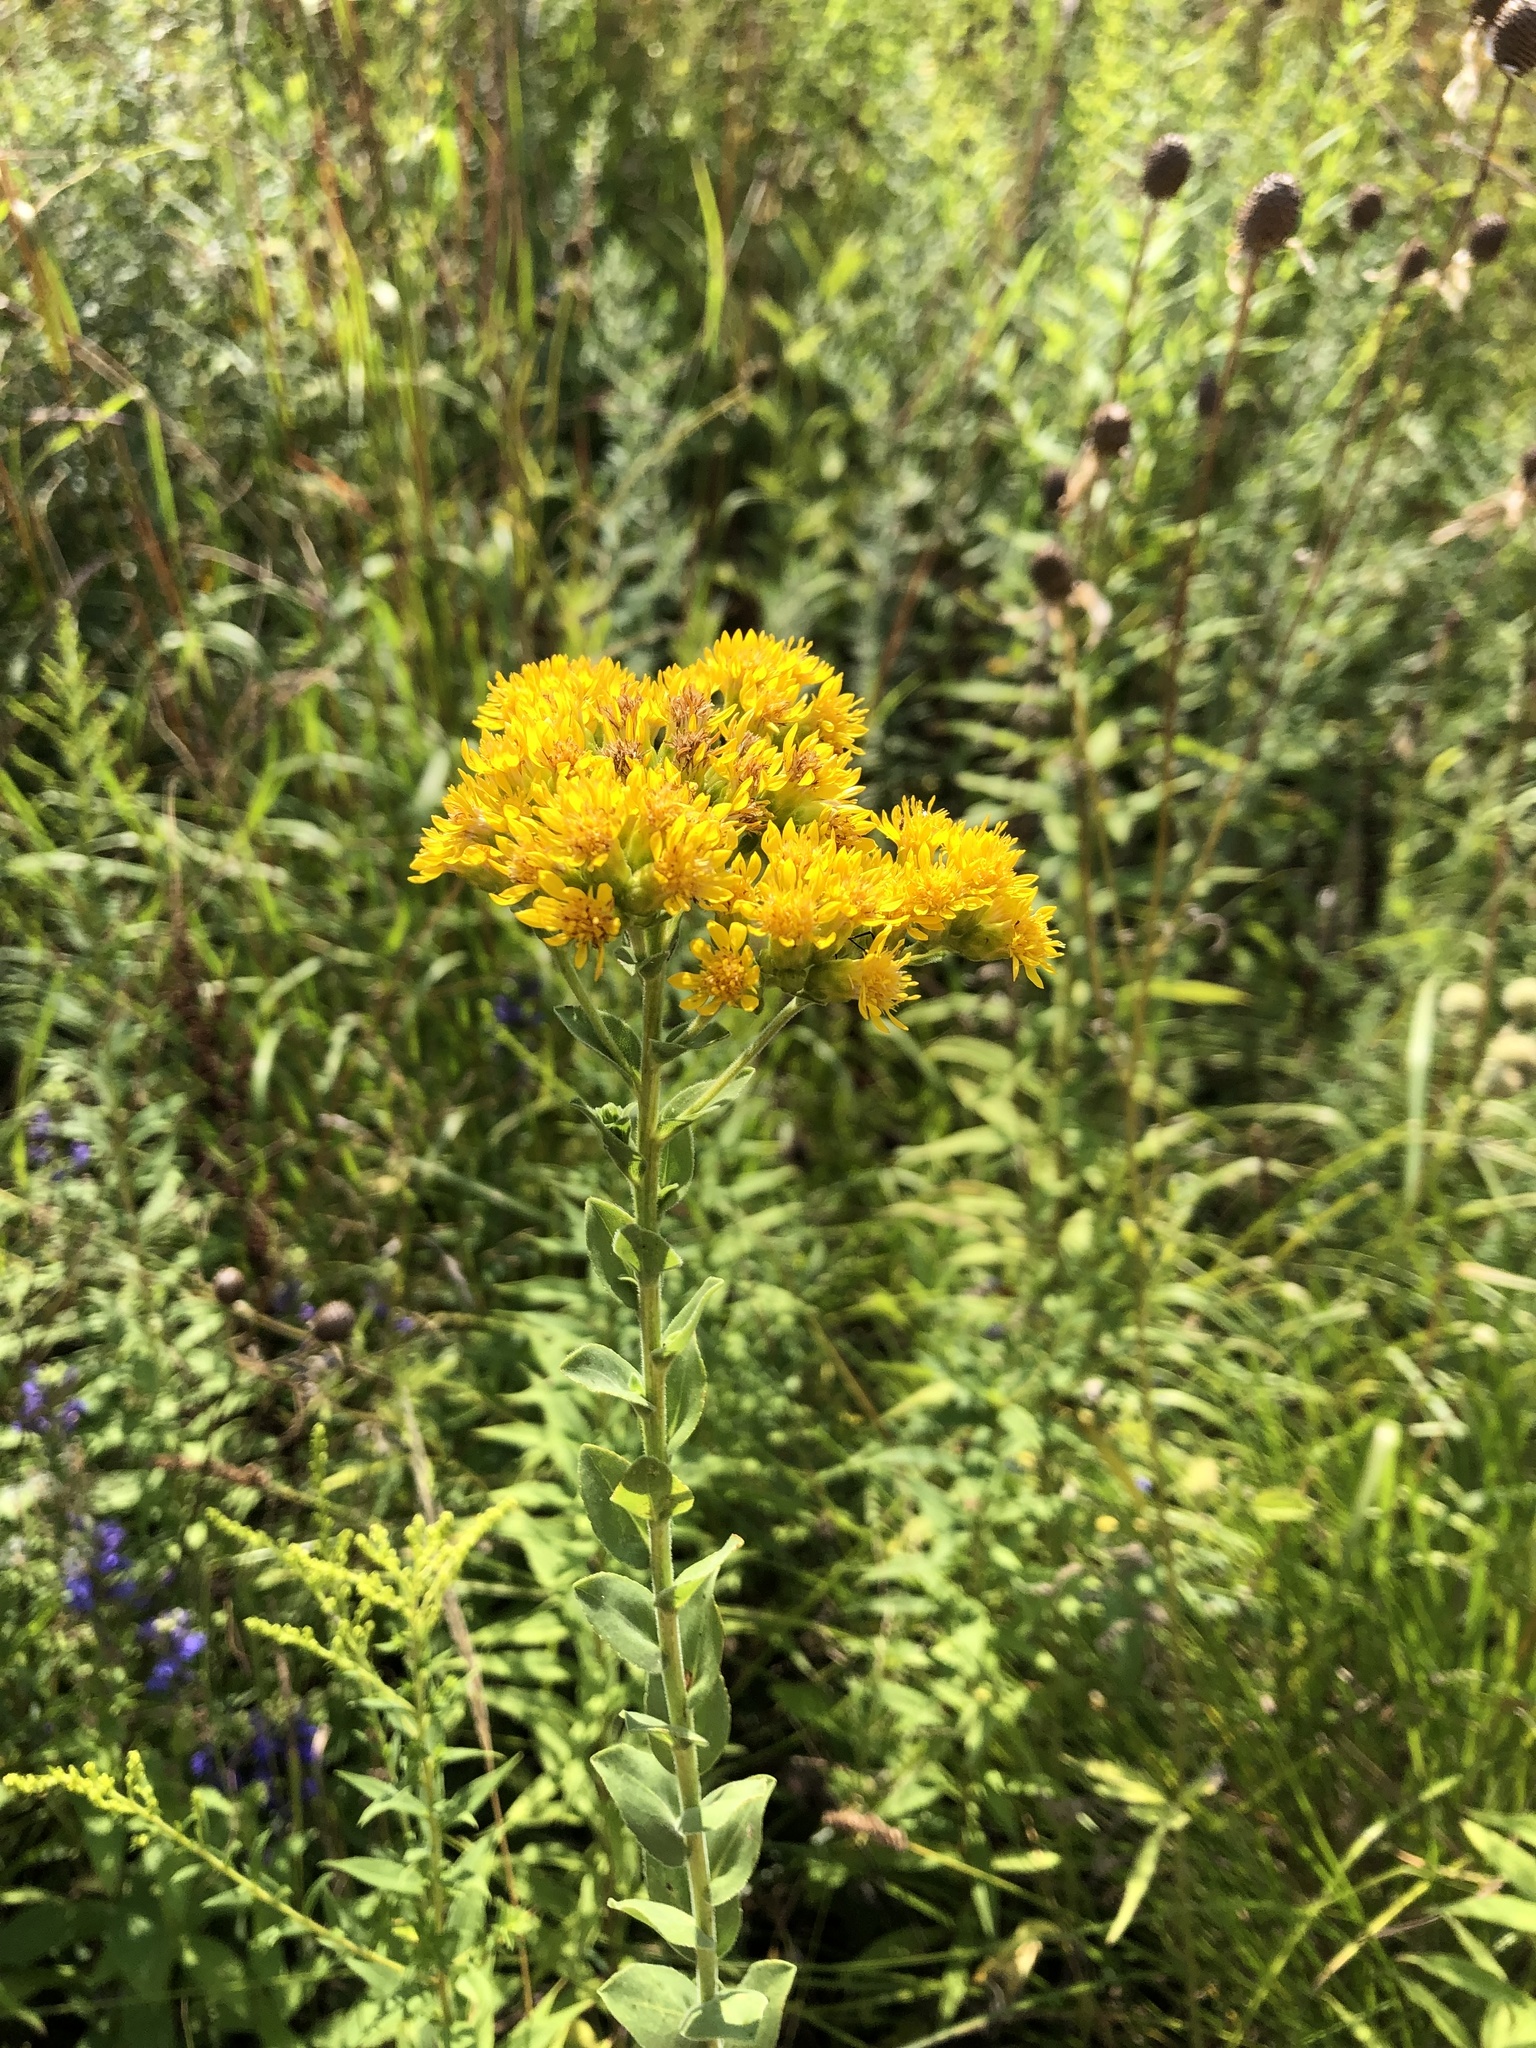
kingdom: Plantae
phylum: Tracheophyta
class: Magnoliopsida
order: Asterales
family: Asteraceae
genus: Solidago
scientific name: Solidago rigida
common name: Rigid goldenrod
